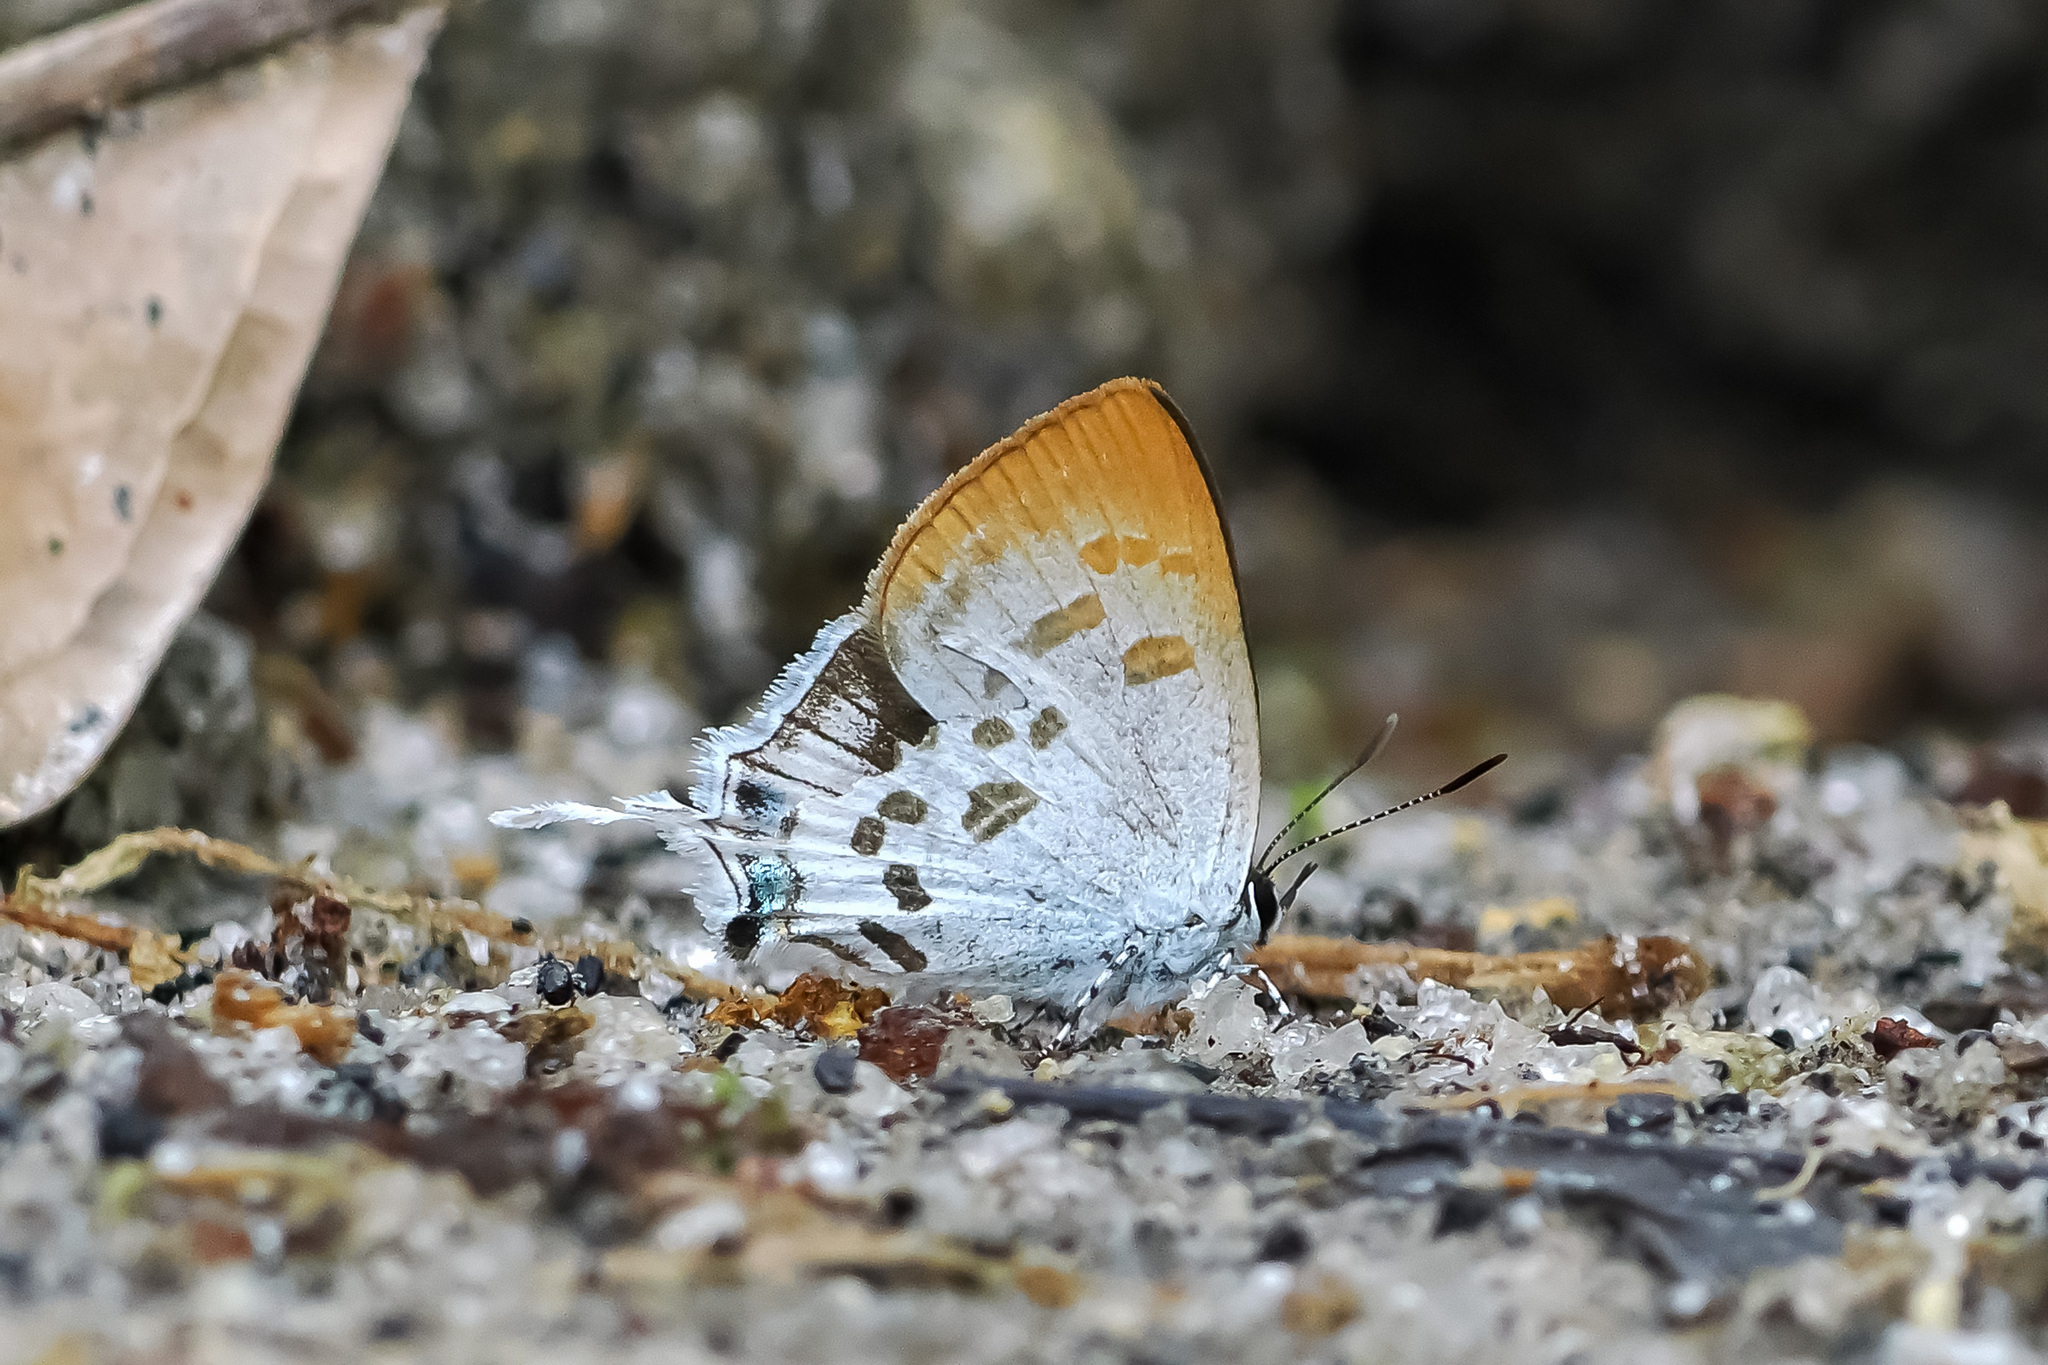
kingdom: Animalia
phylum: Arthropoda
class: Insecta
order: Lepidoptera
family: Lycaenidae
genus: Sinthusa
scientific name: Sinthusa malika
